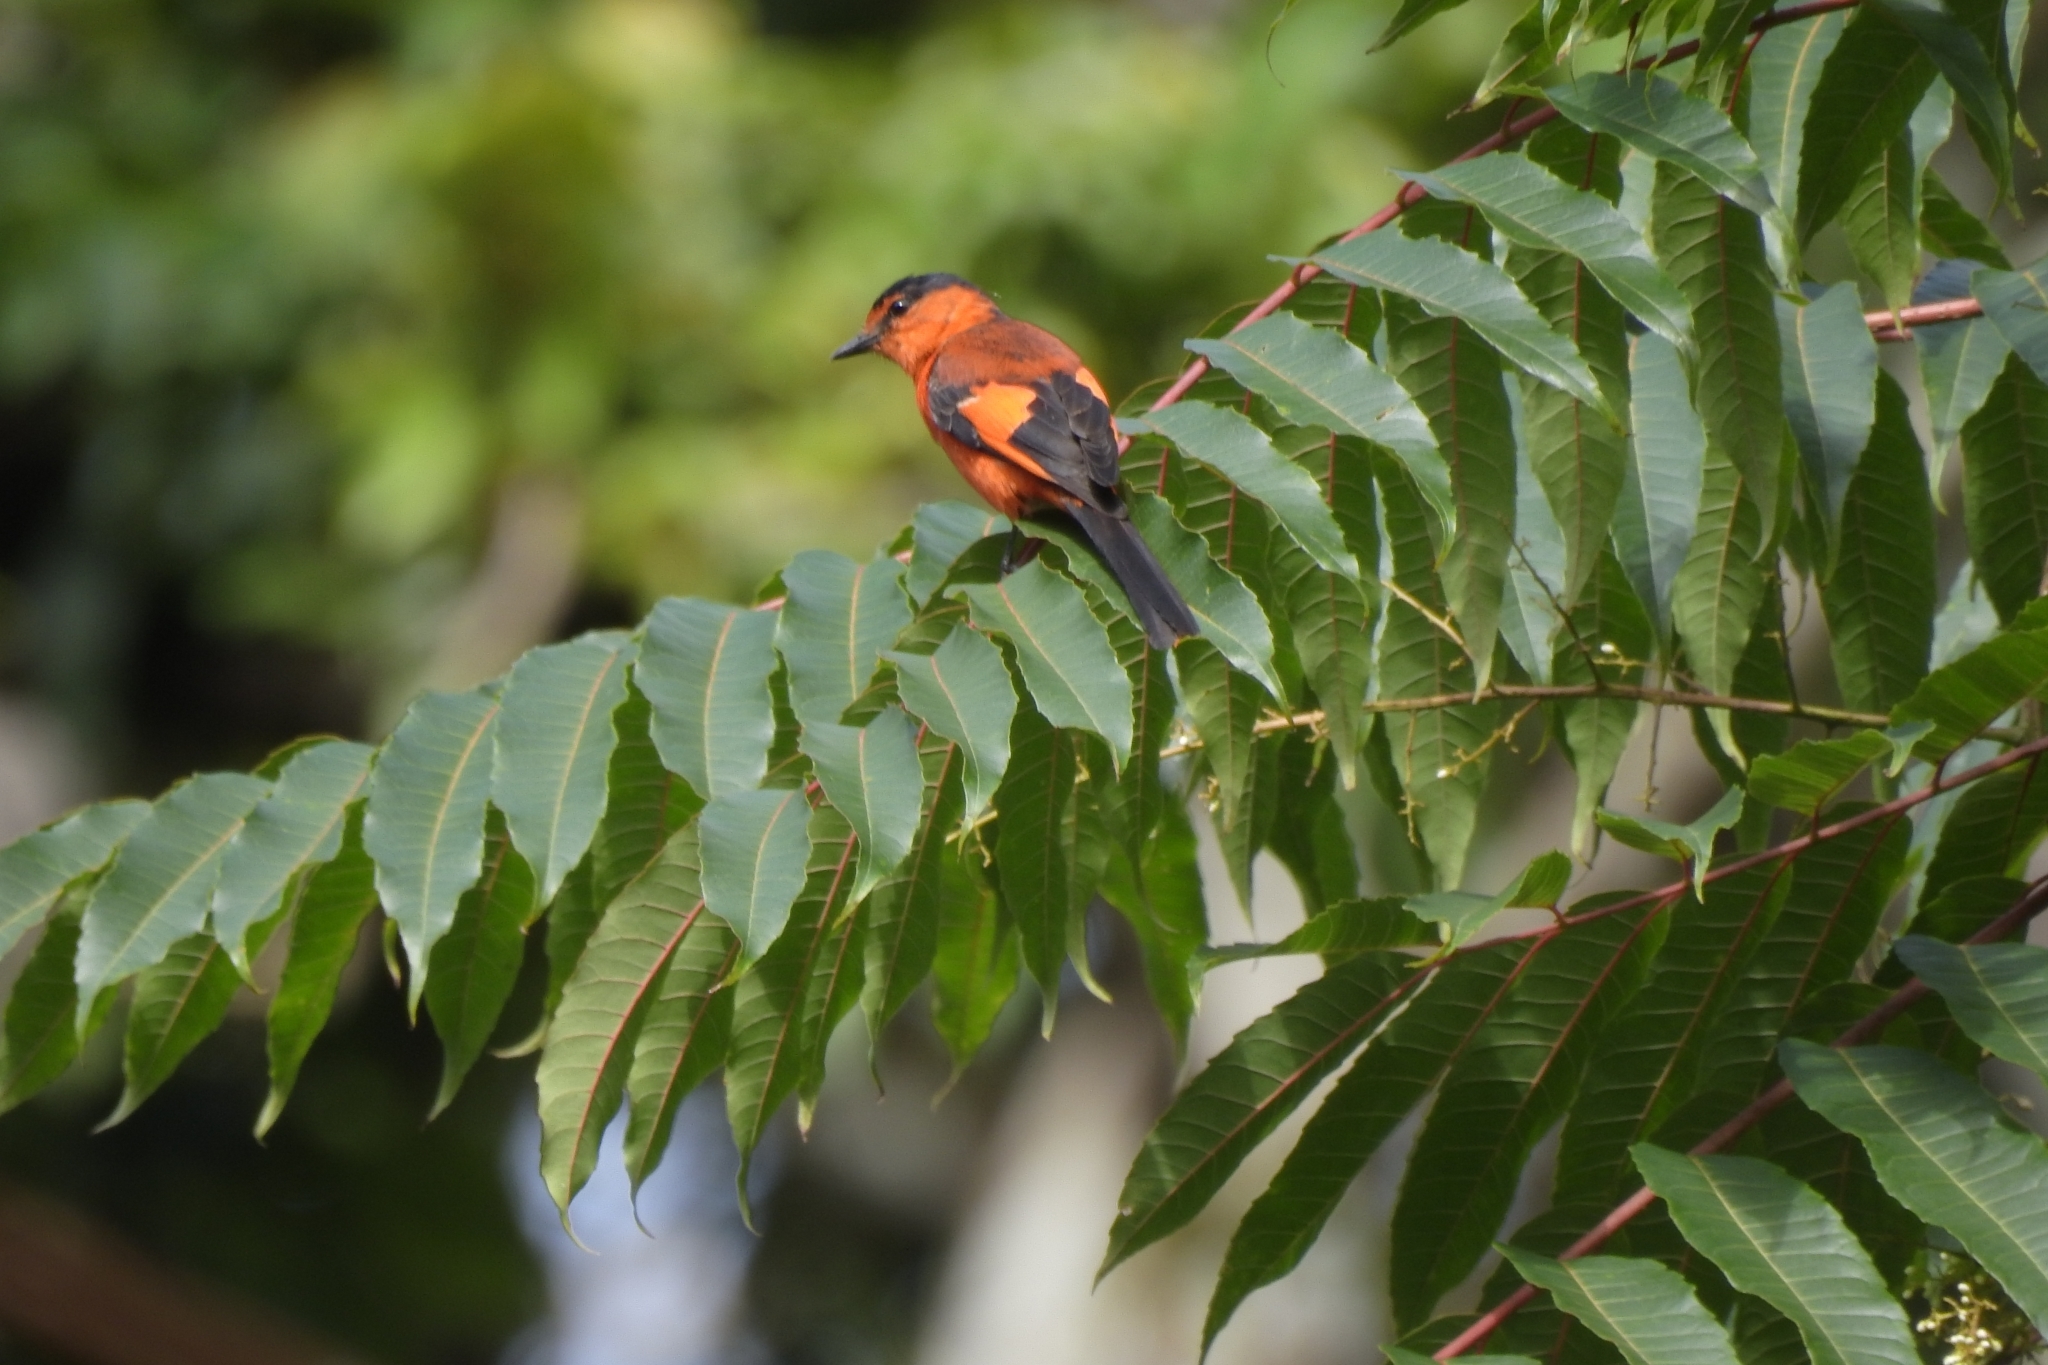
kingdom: Animalia
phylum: Chordata
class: Aves
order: Passeriformes
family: Campephagidae
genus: Pericrocotus
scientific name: Pericrocotus miniatus
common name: Sunda minivet
